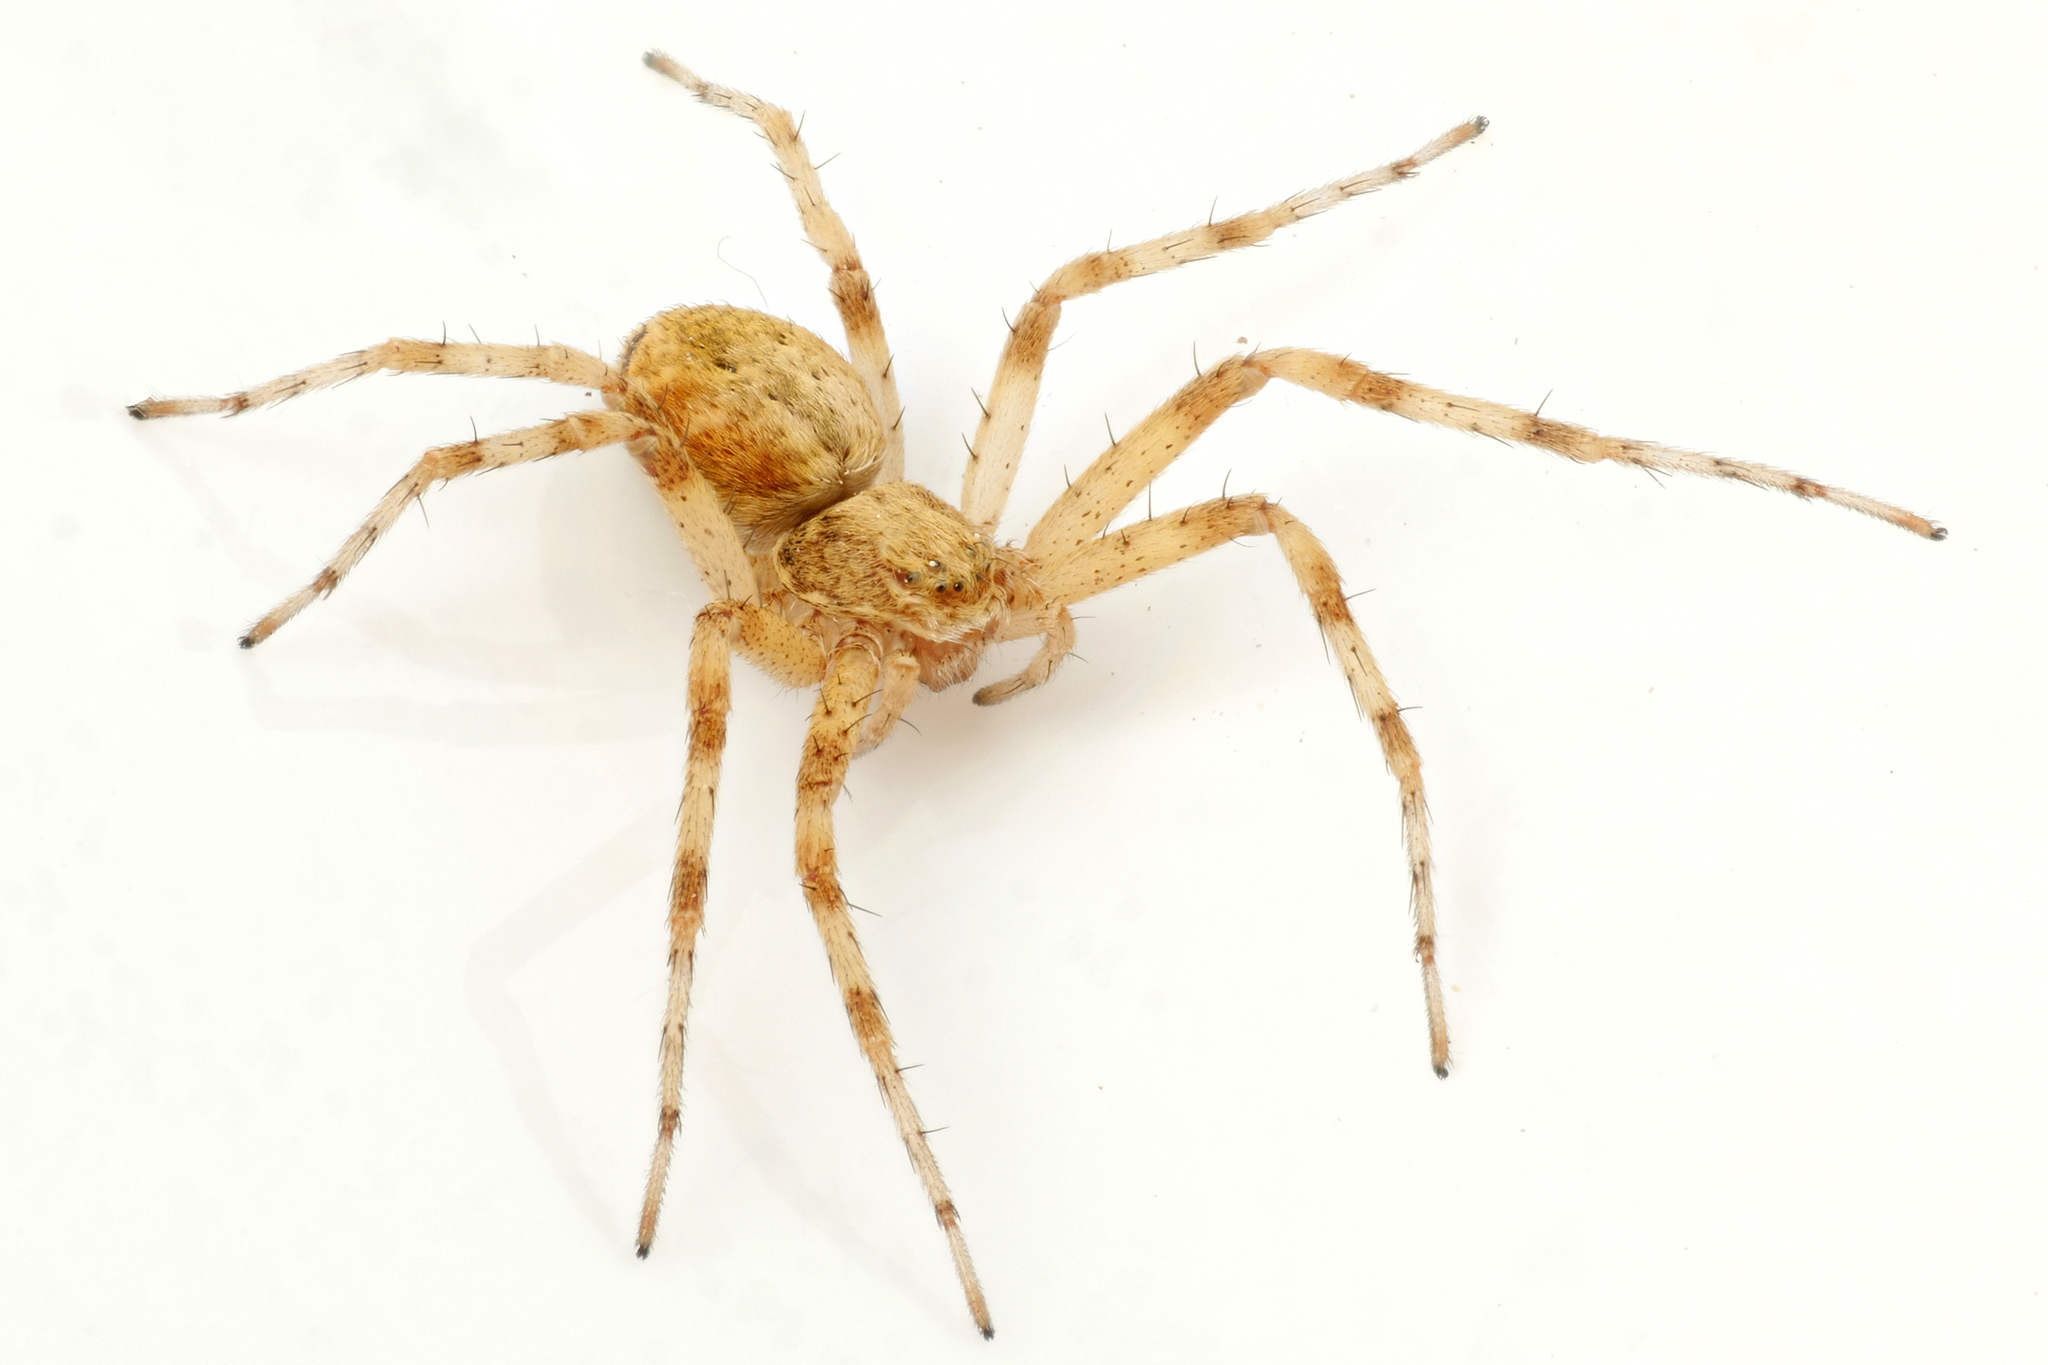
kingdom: Animalia
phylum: Arthropoda
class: Arachnida
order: Araneae
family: Philodromidae
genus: Philodromus
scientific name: Philodromus praedatus
